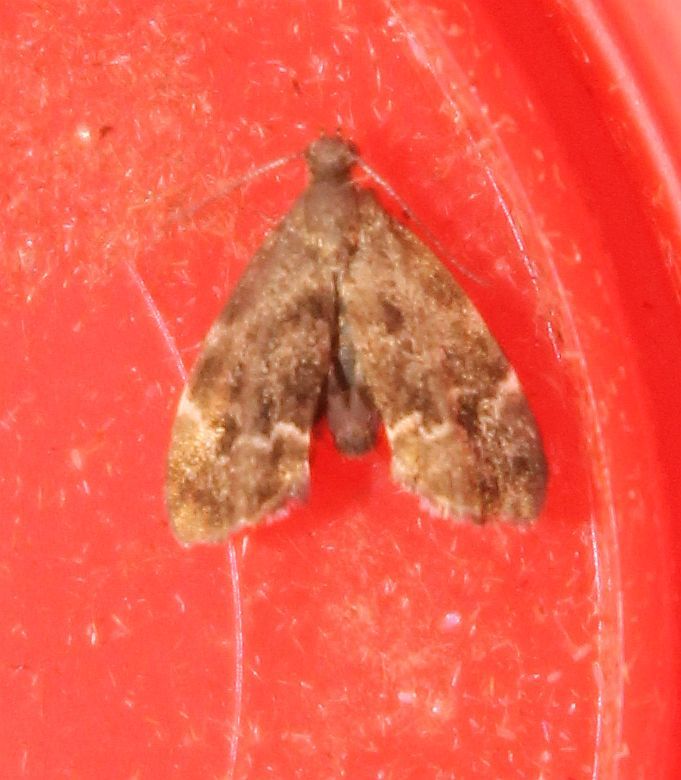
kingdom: Animalia
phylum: Arthropoda
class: Insecta
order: Lepidoptera
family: Choreutidae
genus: Anthophila
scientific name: Anthophila fabriciana
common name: Nettle-tap
